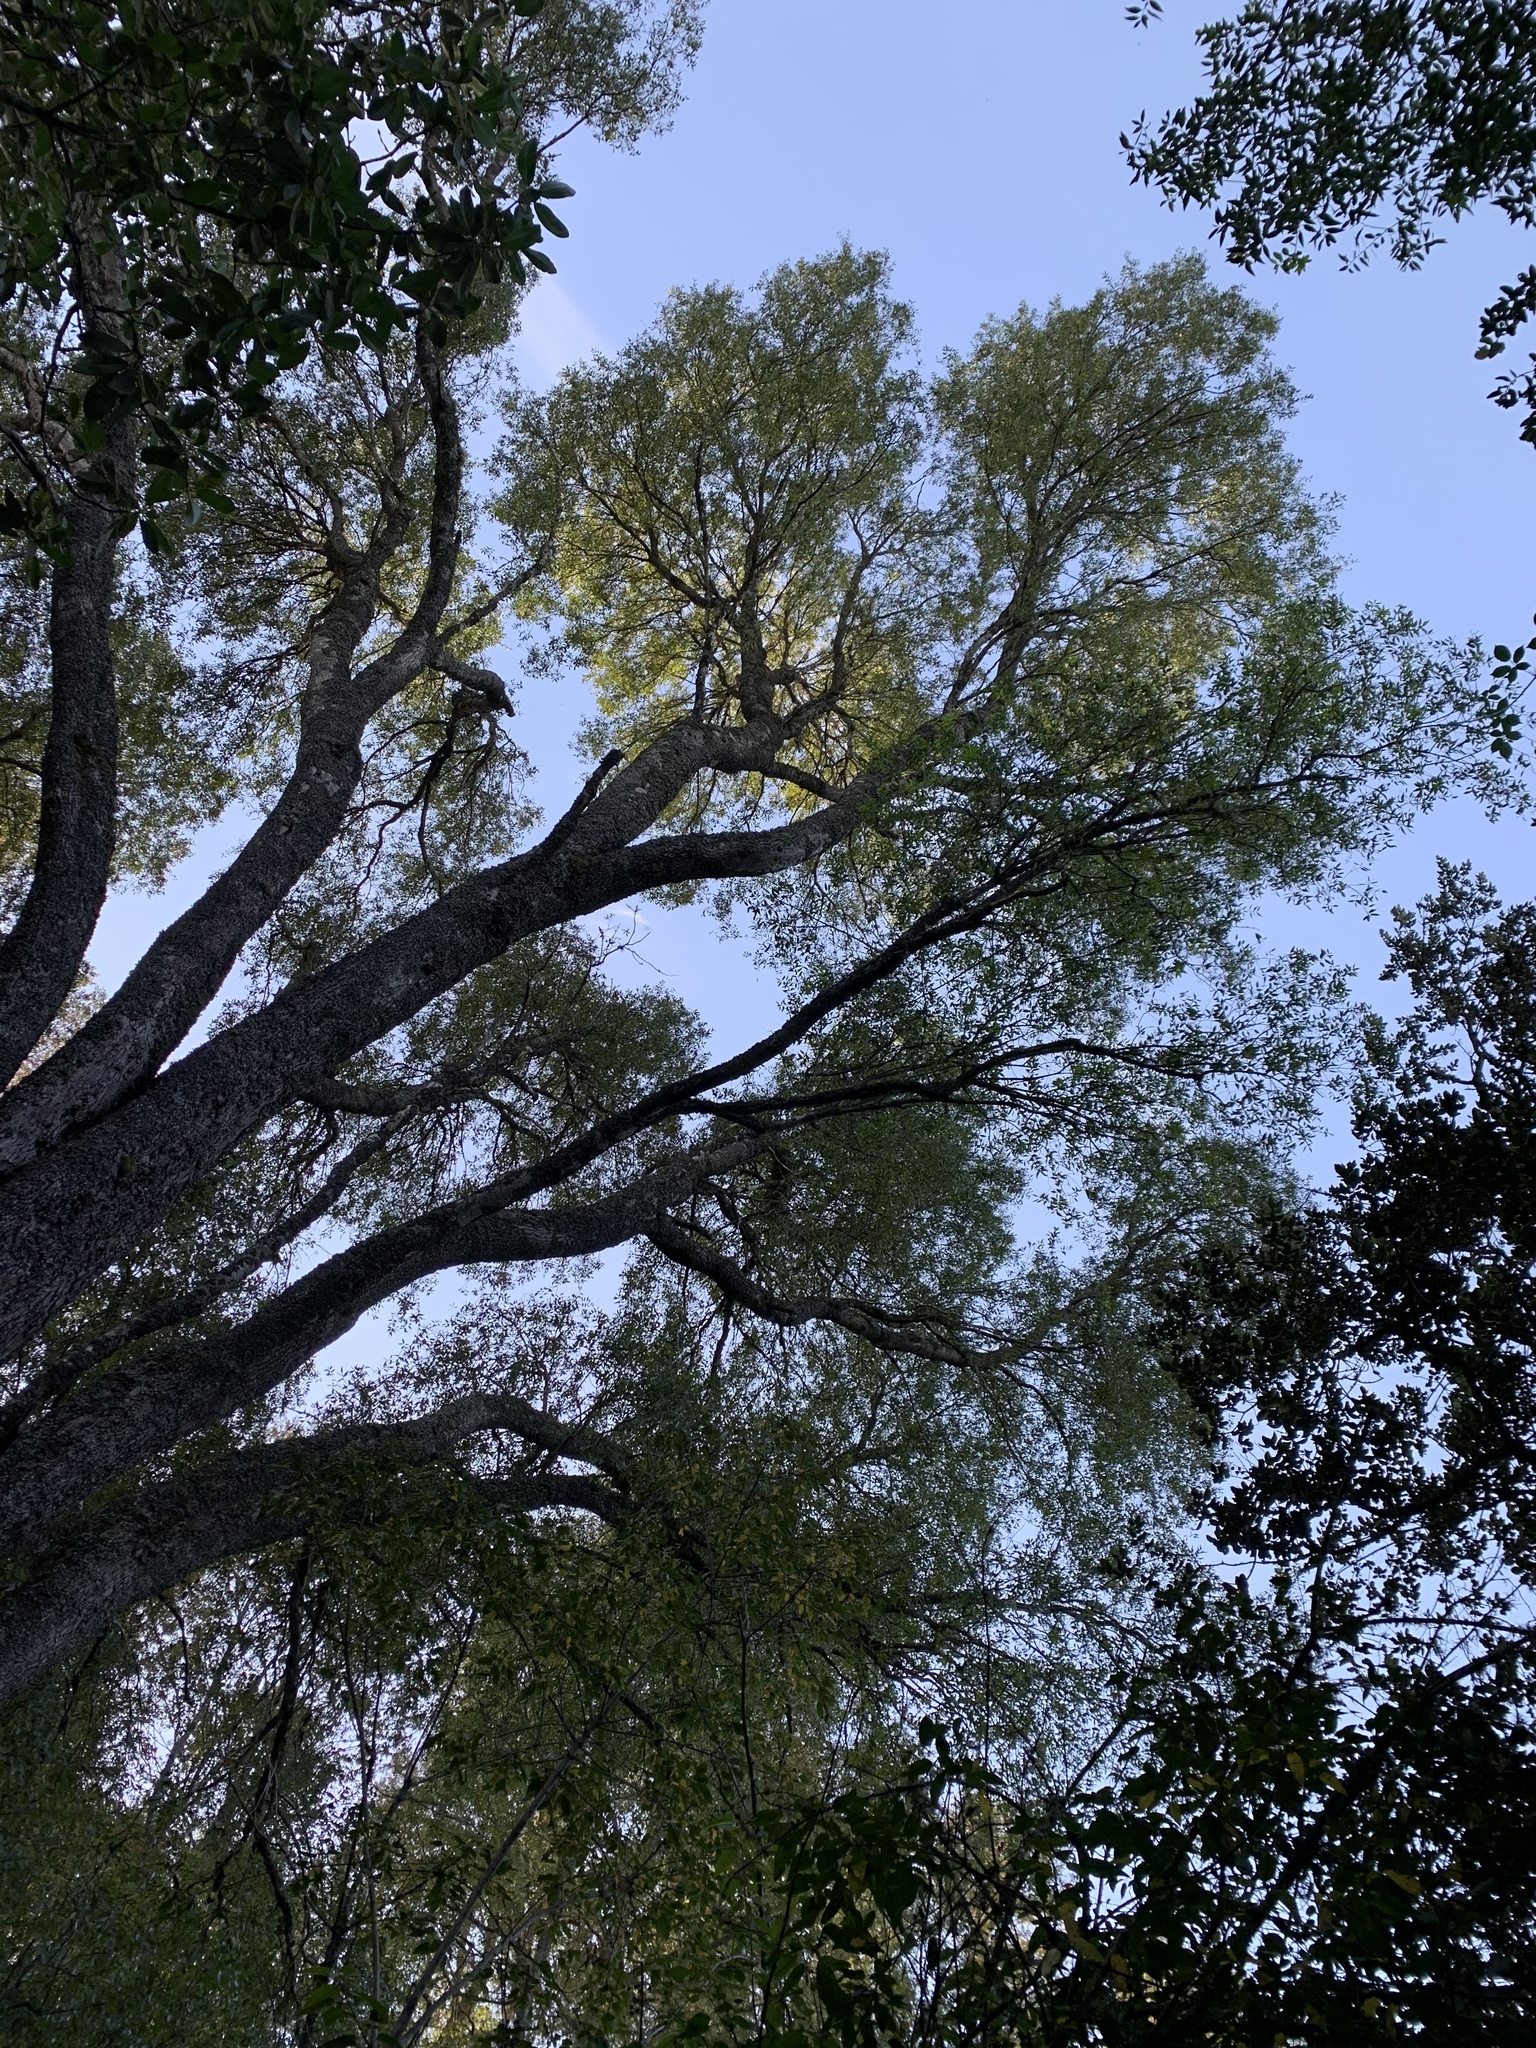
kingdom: Plantae
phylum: Tracheophyta
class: Magnoliopsida
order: Celastrales
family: Celastraceae
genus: Maytenus
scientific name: Maytenus boaria
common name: Mayten
